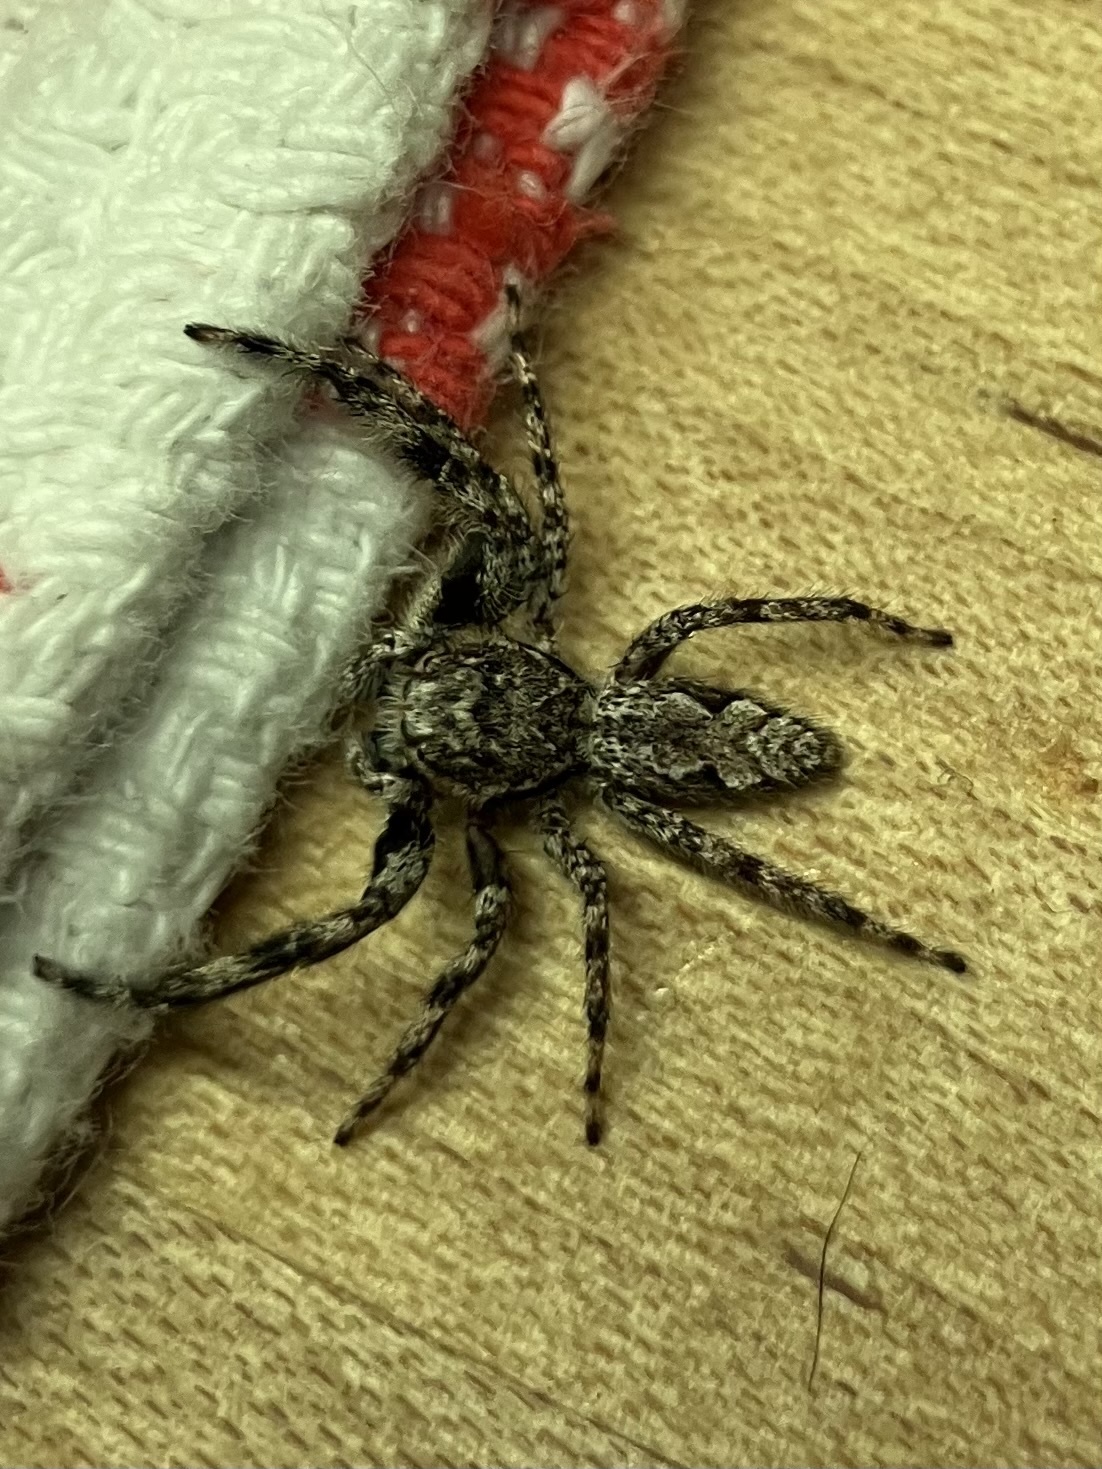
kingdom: Animalia
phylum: Arthropoda
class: Arachnida
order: Araneae
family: Salticidae
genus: Platycryptus
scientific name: Platycryptus undatus
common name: Tan jumping spider
